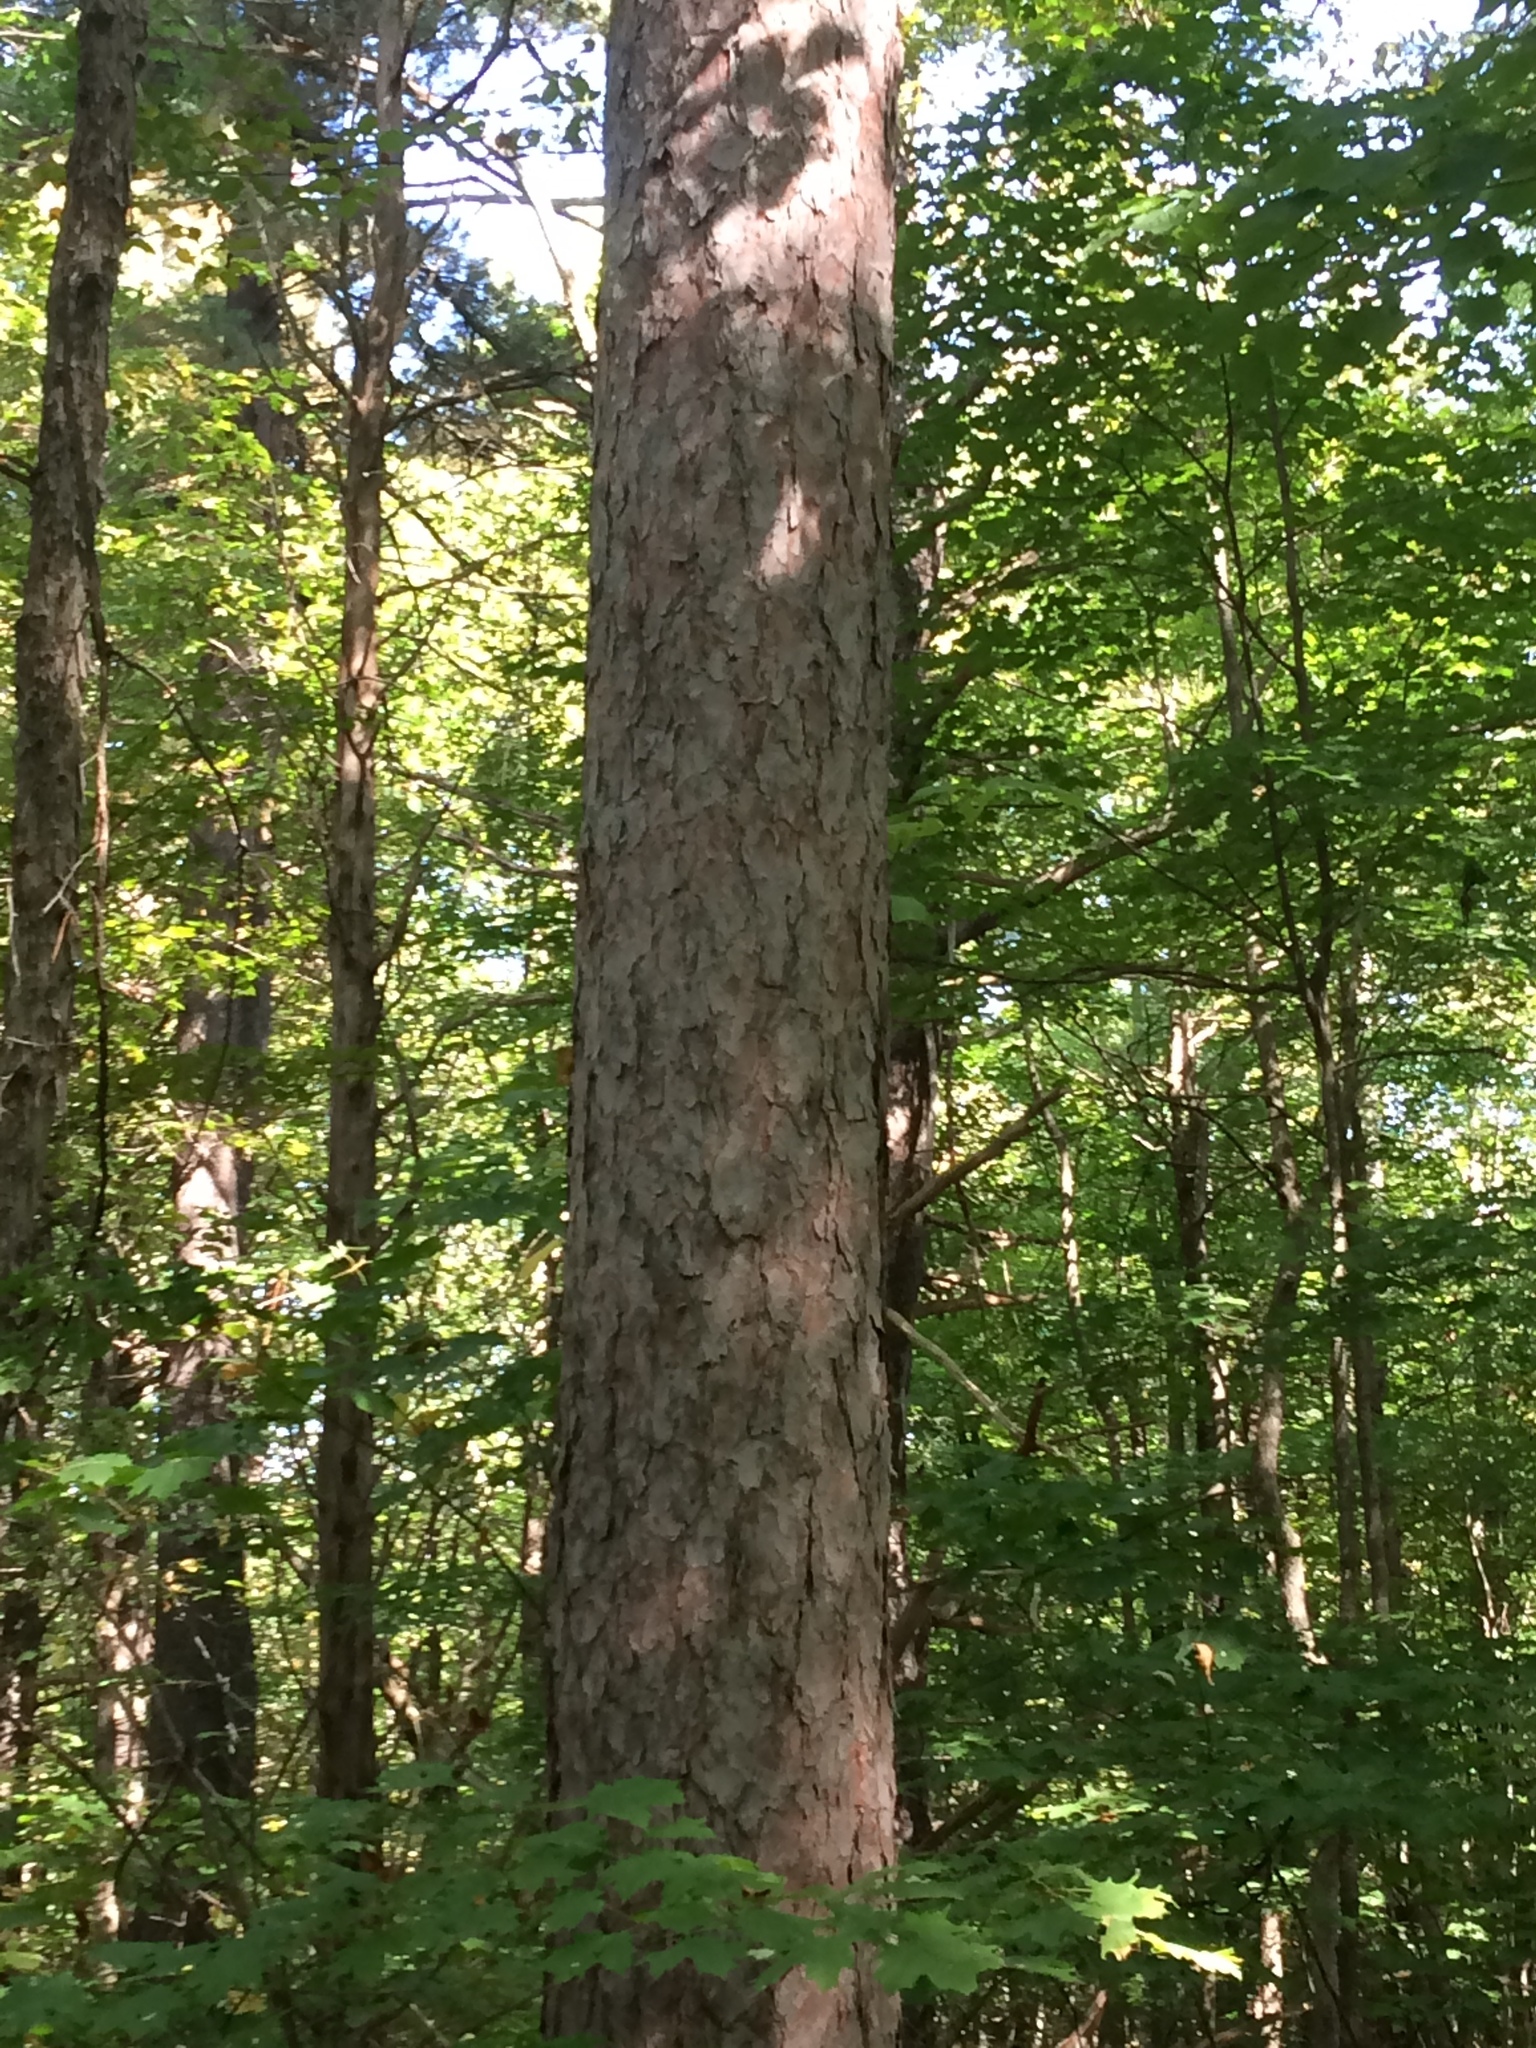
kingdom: Plantae
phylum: Tracheophyta
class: Pinopsida
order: Pinales
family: Pinaceae
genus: Pinus
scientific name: Pinus resinosa
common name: Norway pine
